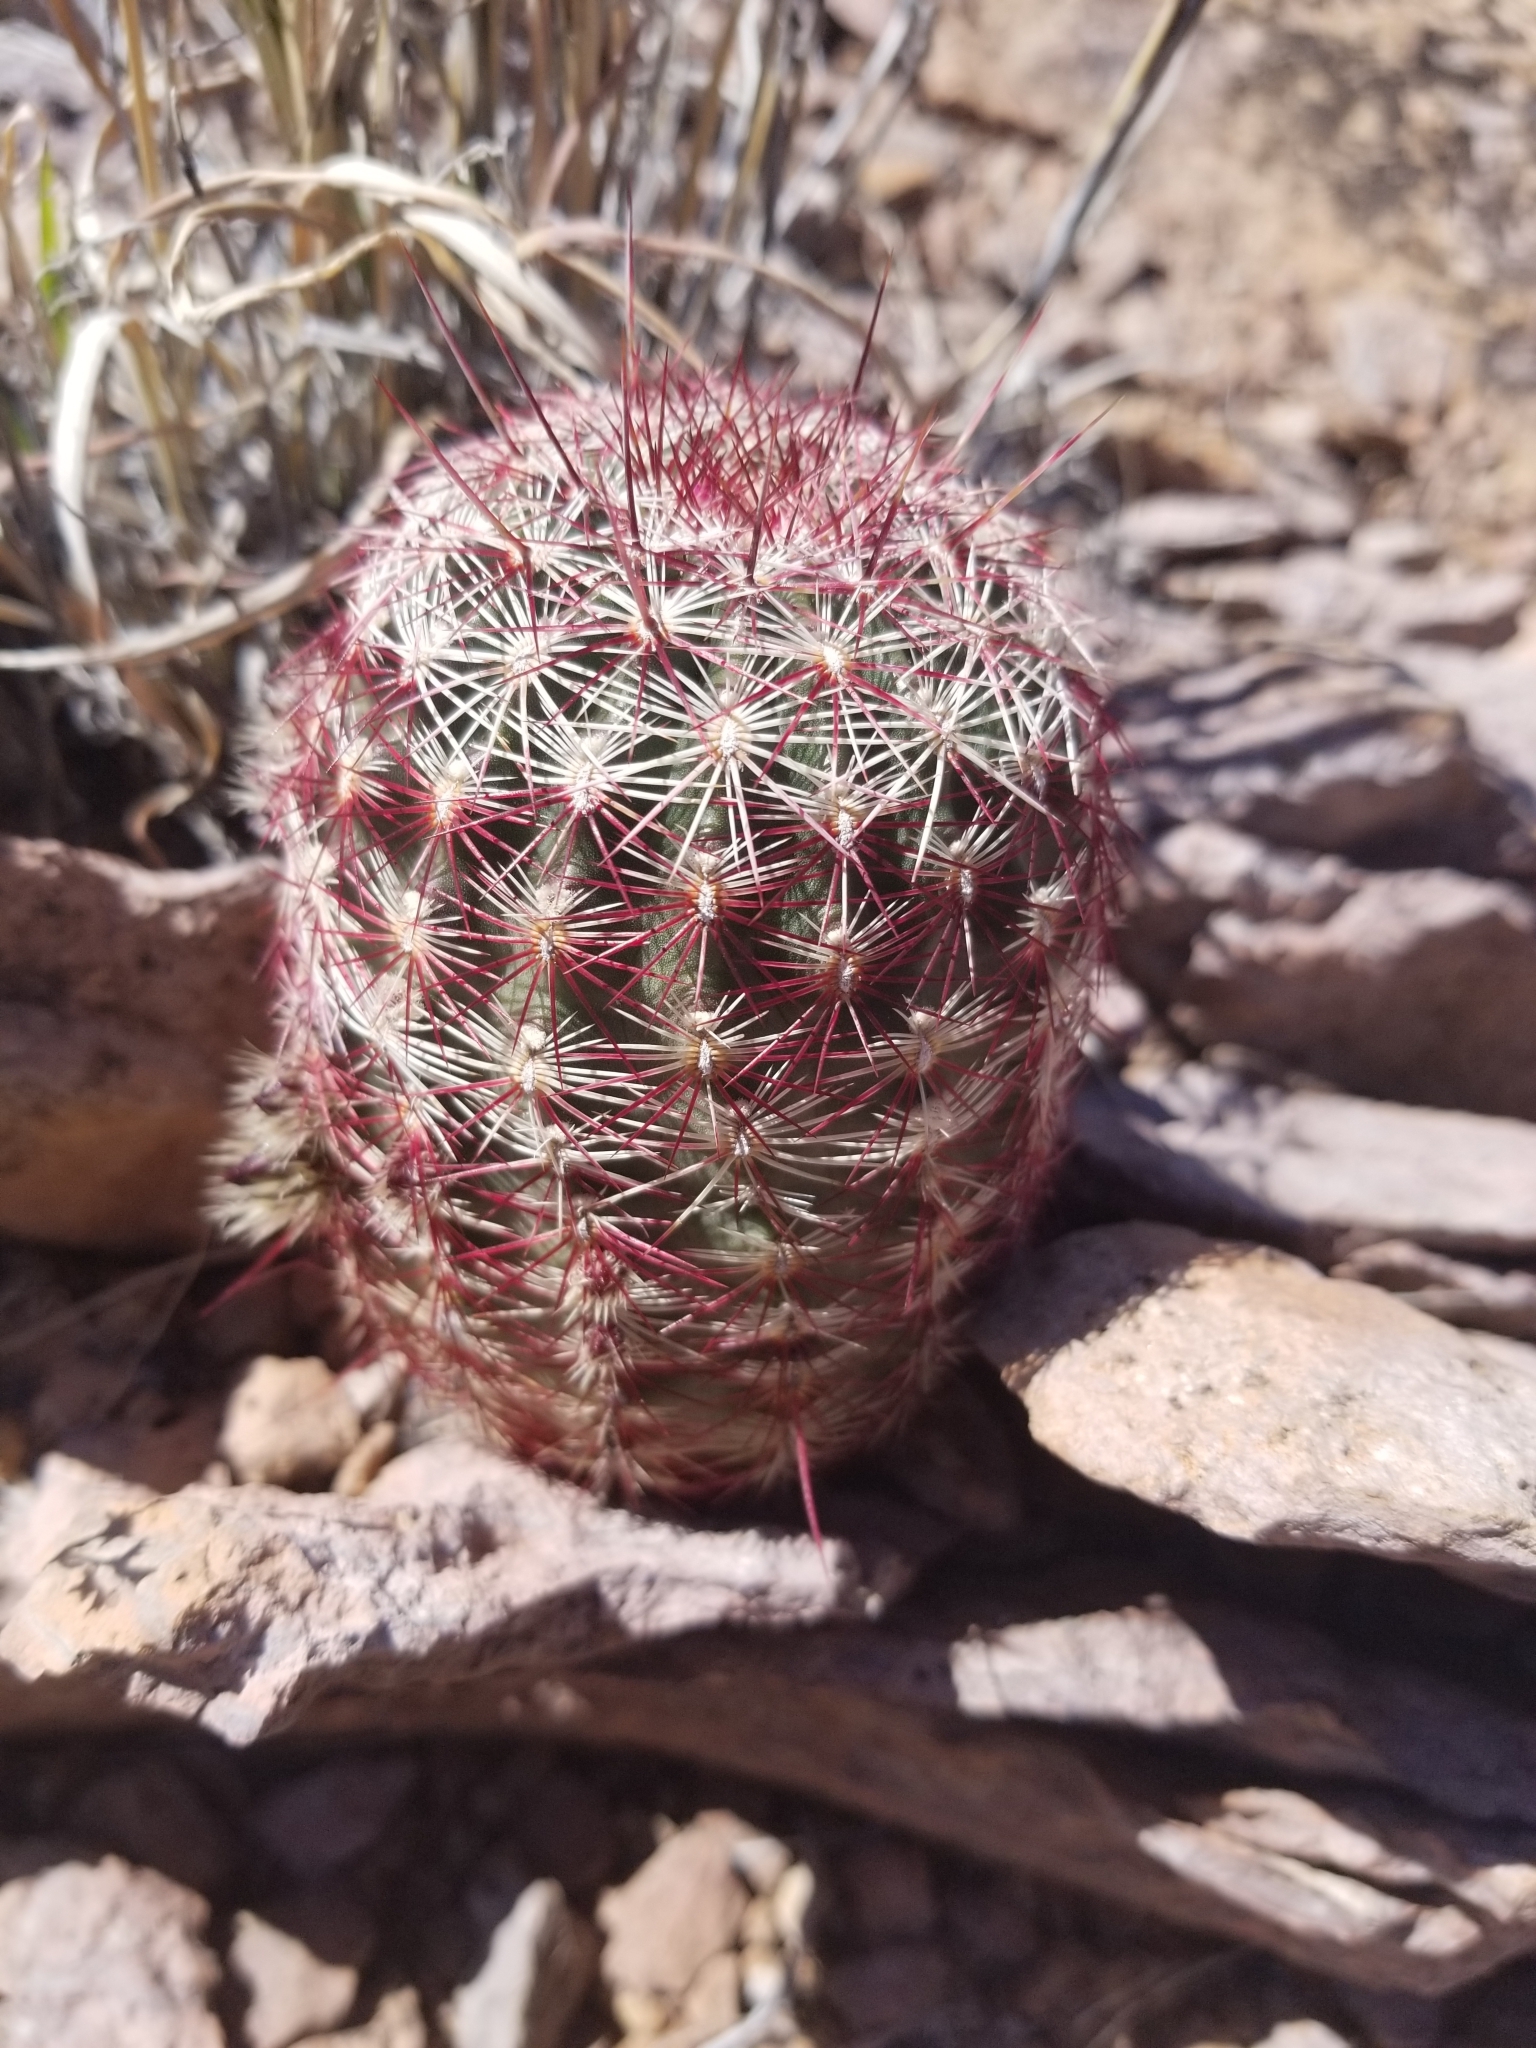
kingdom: Plantae
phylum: Tracheophyta
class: Magnoliopsida
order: Caryophyllales
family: Cactaceae
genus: Echinocereus
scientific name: Echinocereus viridiflorus
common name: Nylon hedgehog cactus
